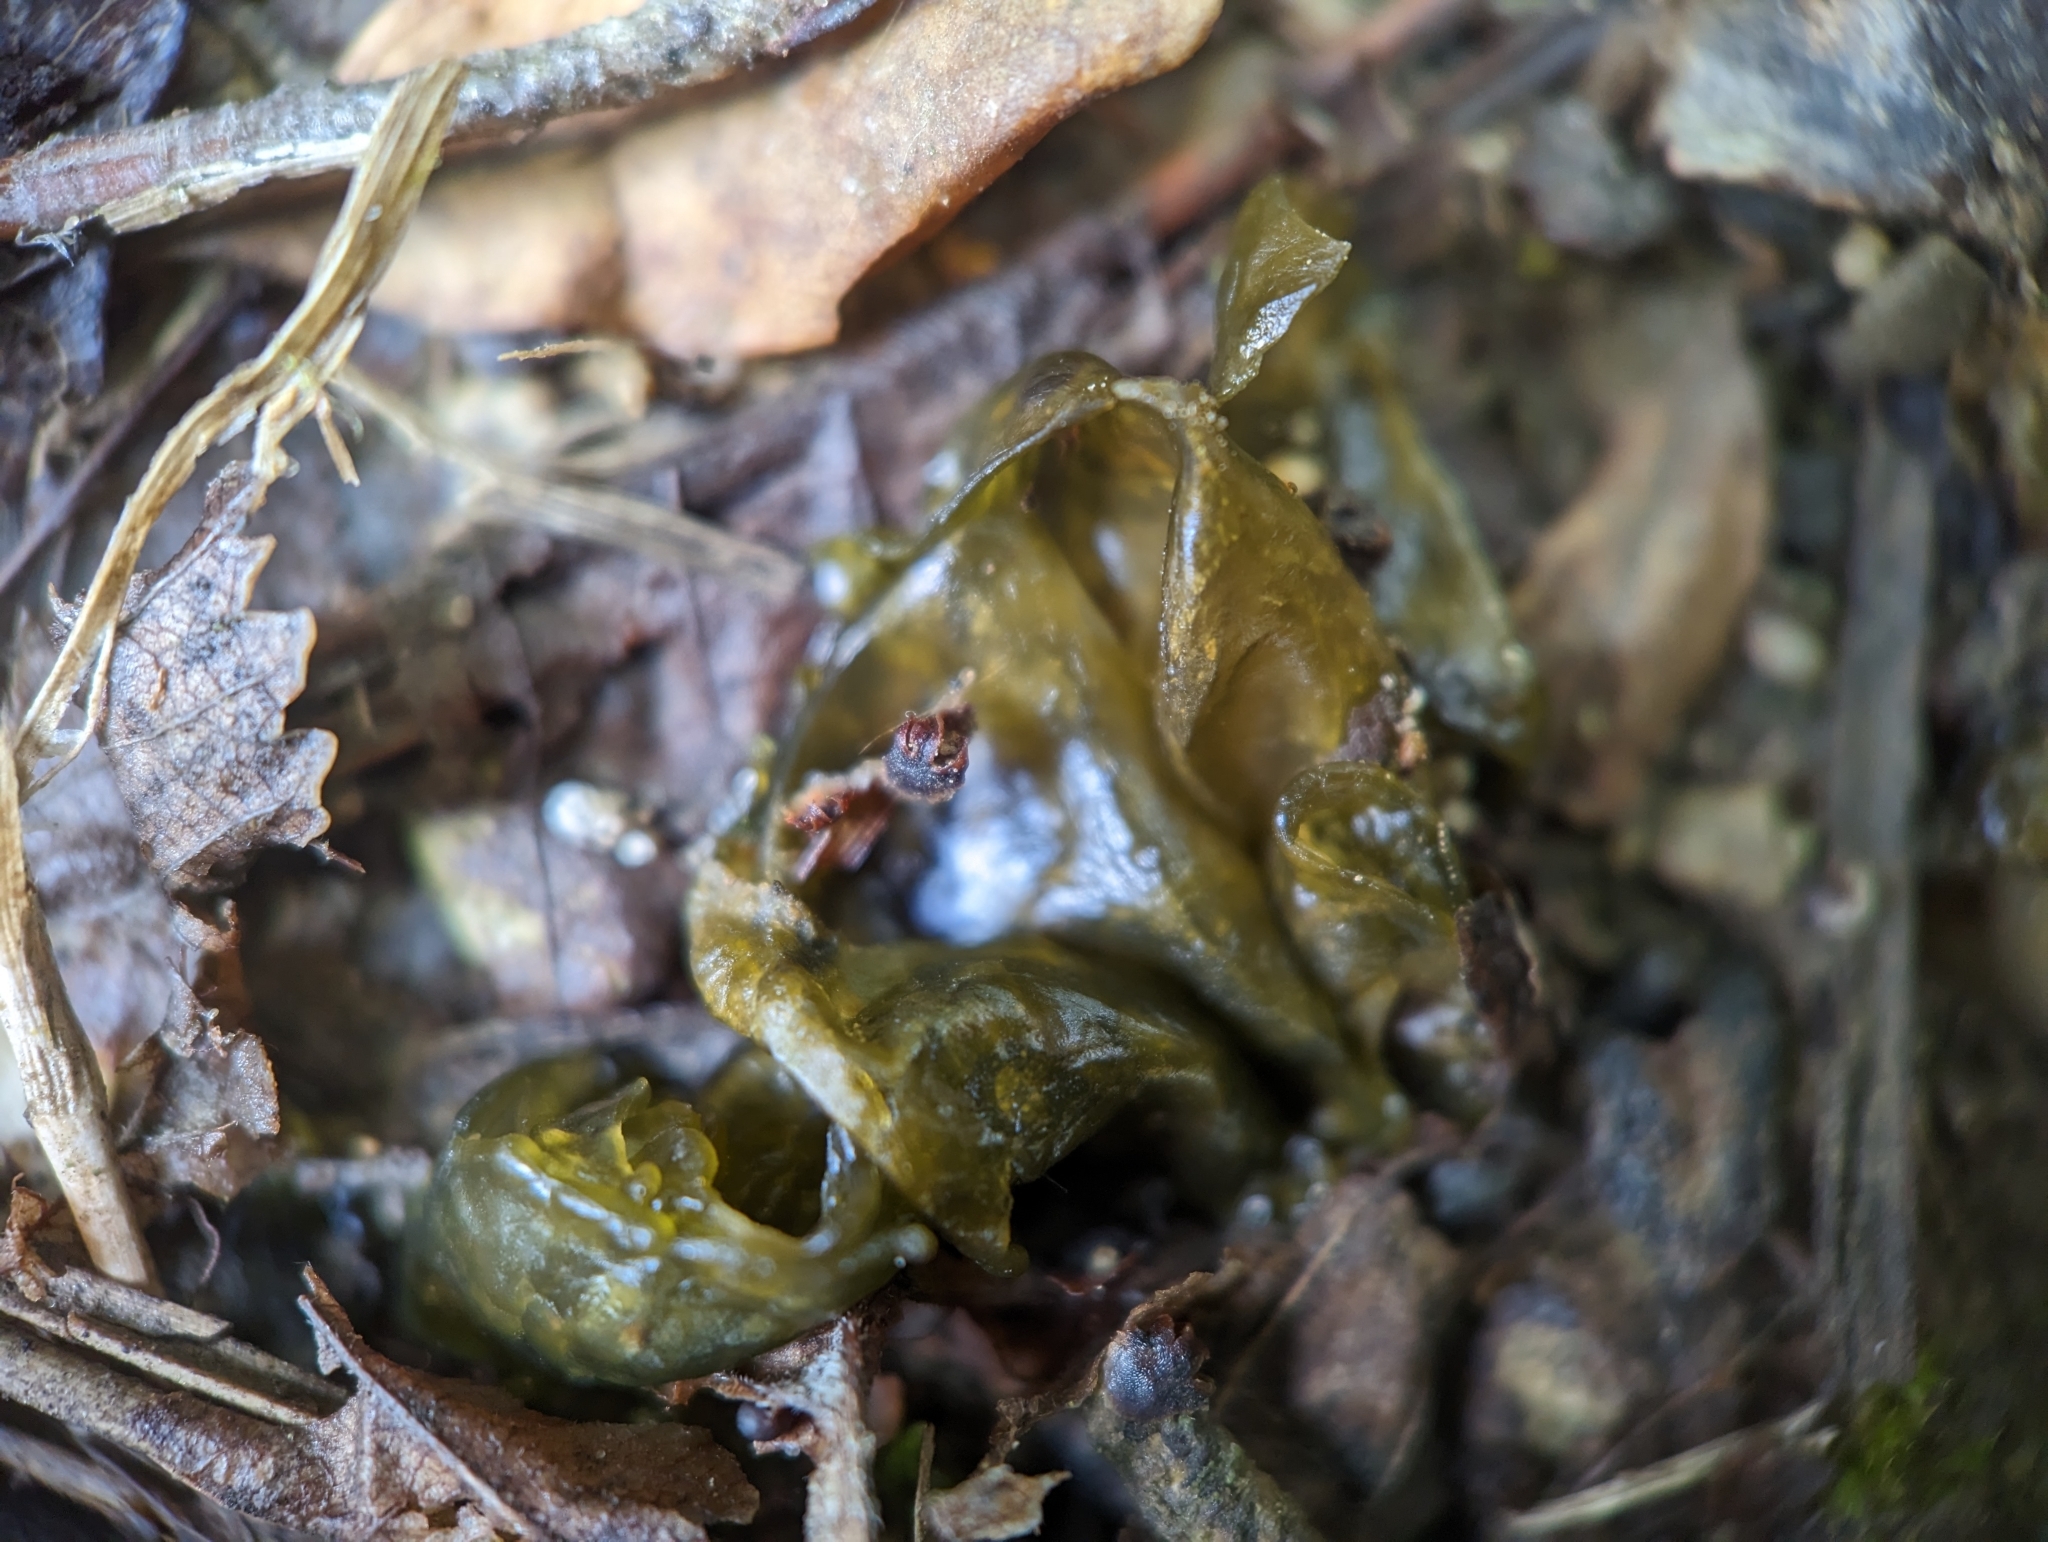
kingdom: Bacteria
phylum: Cyanobacteria
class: Cyanobacteriia
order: Cyanobacteriales
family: Nostocaceae
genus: Nostoc
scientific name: Nostoc commune
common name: Star jelly
